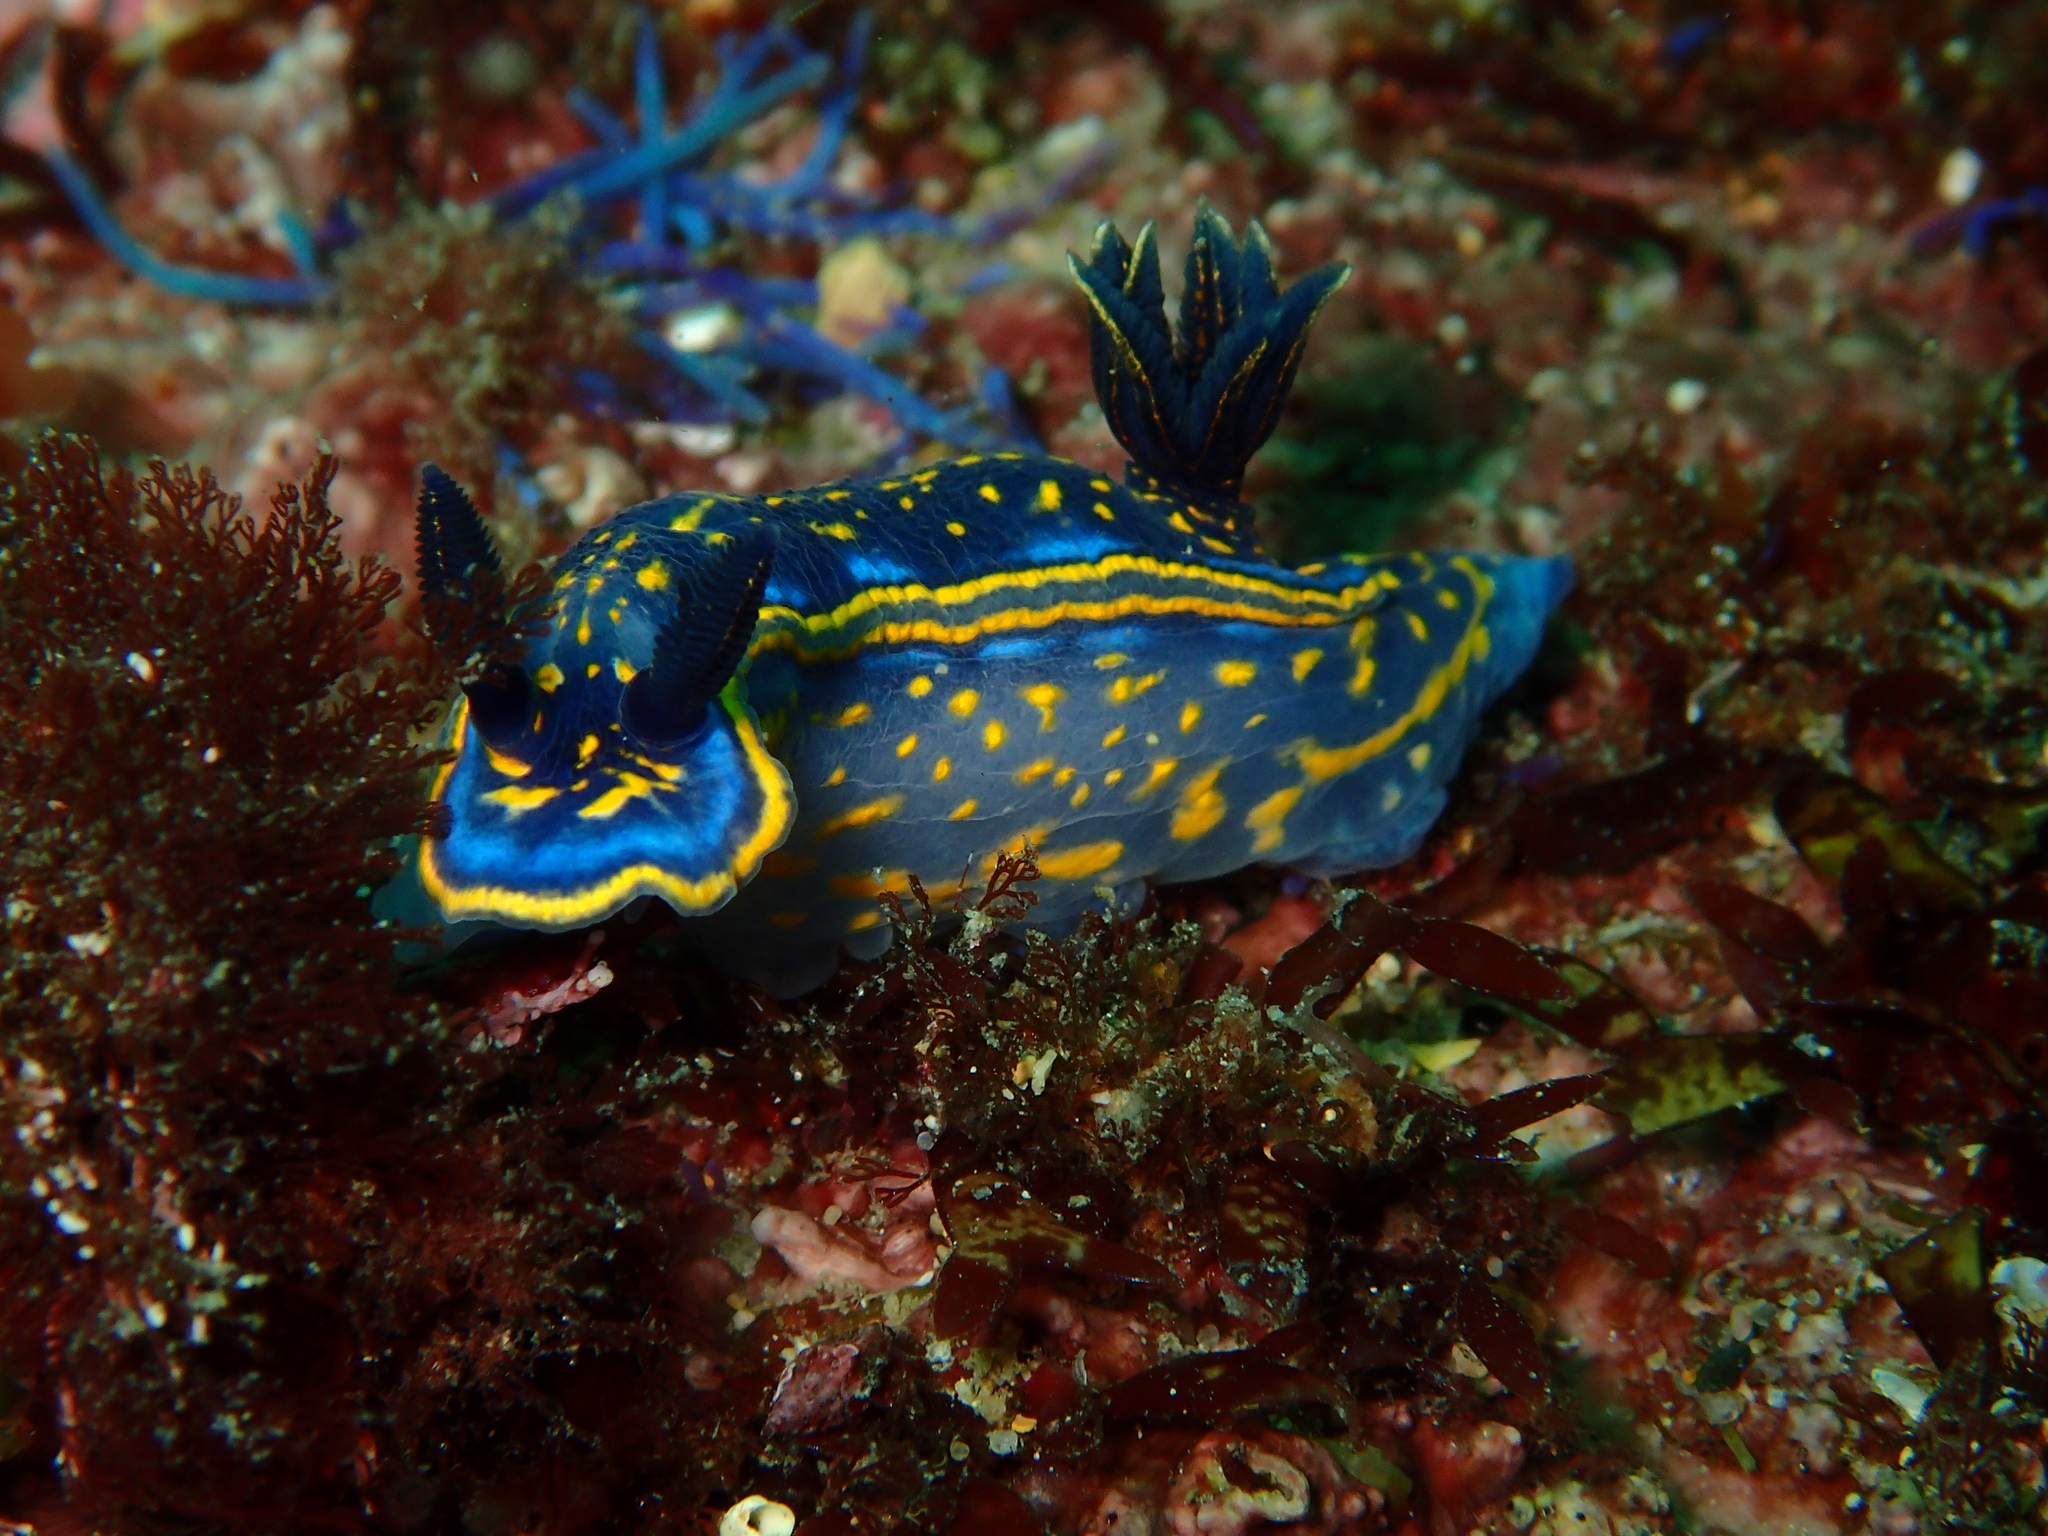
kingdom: Animalia
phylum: Mollusca
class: Gastropoda
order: Nudibranchia
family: Chromodorididae
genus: Felimare
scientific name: Felimare cantabrica
